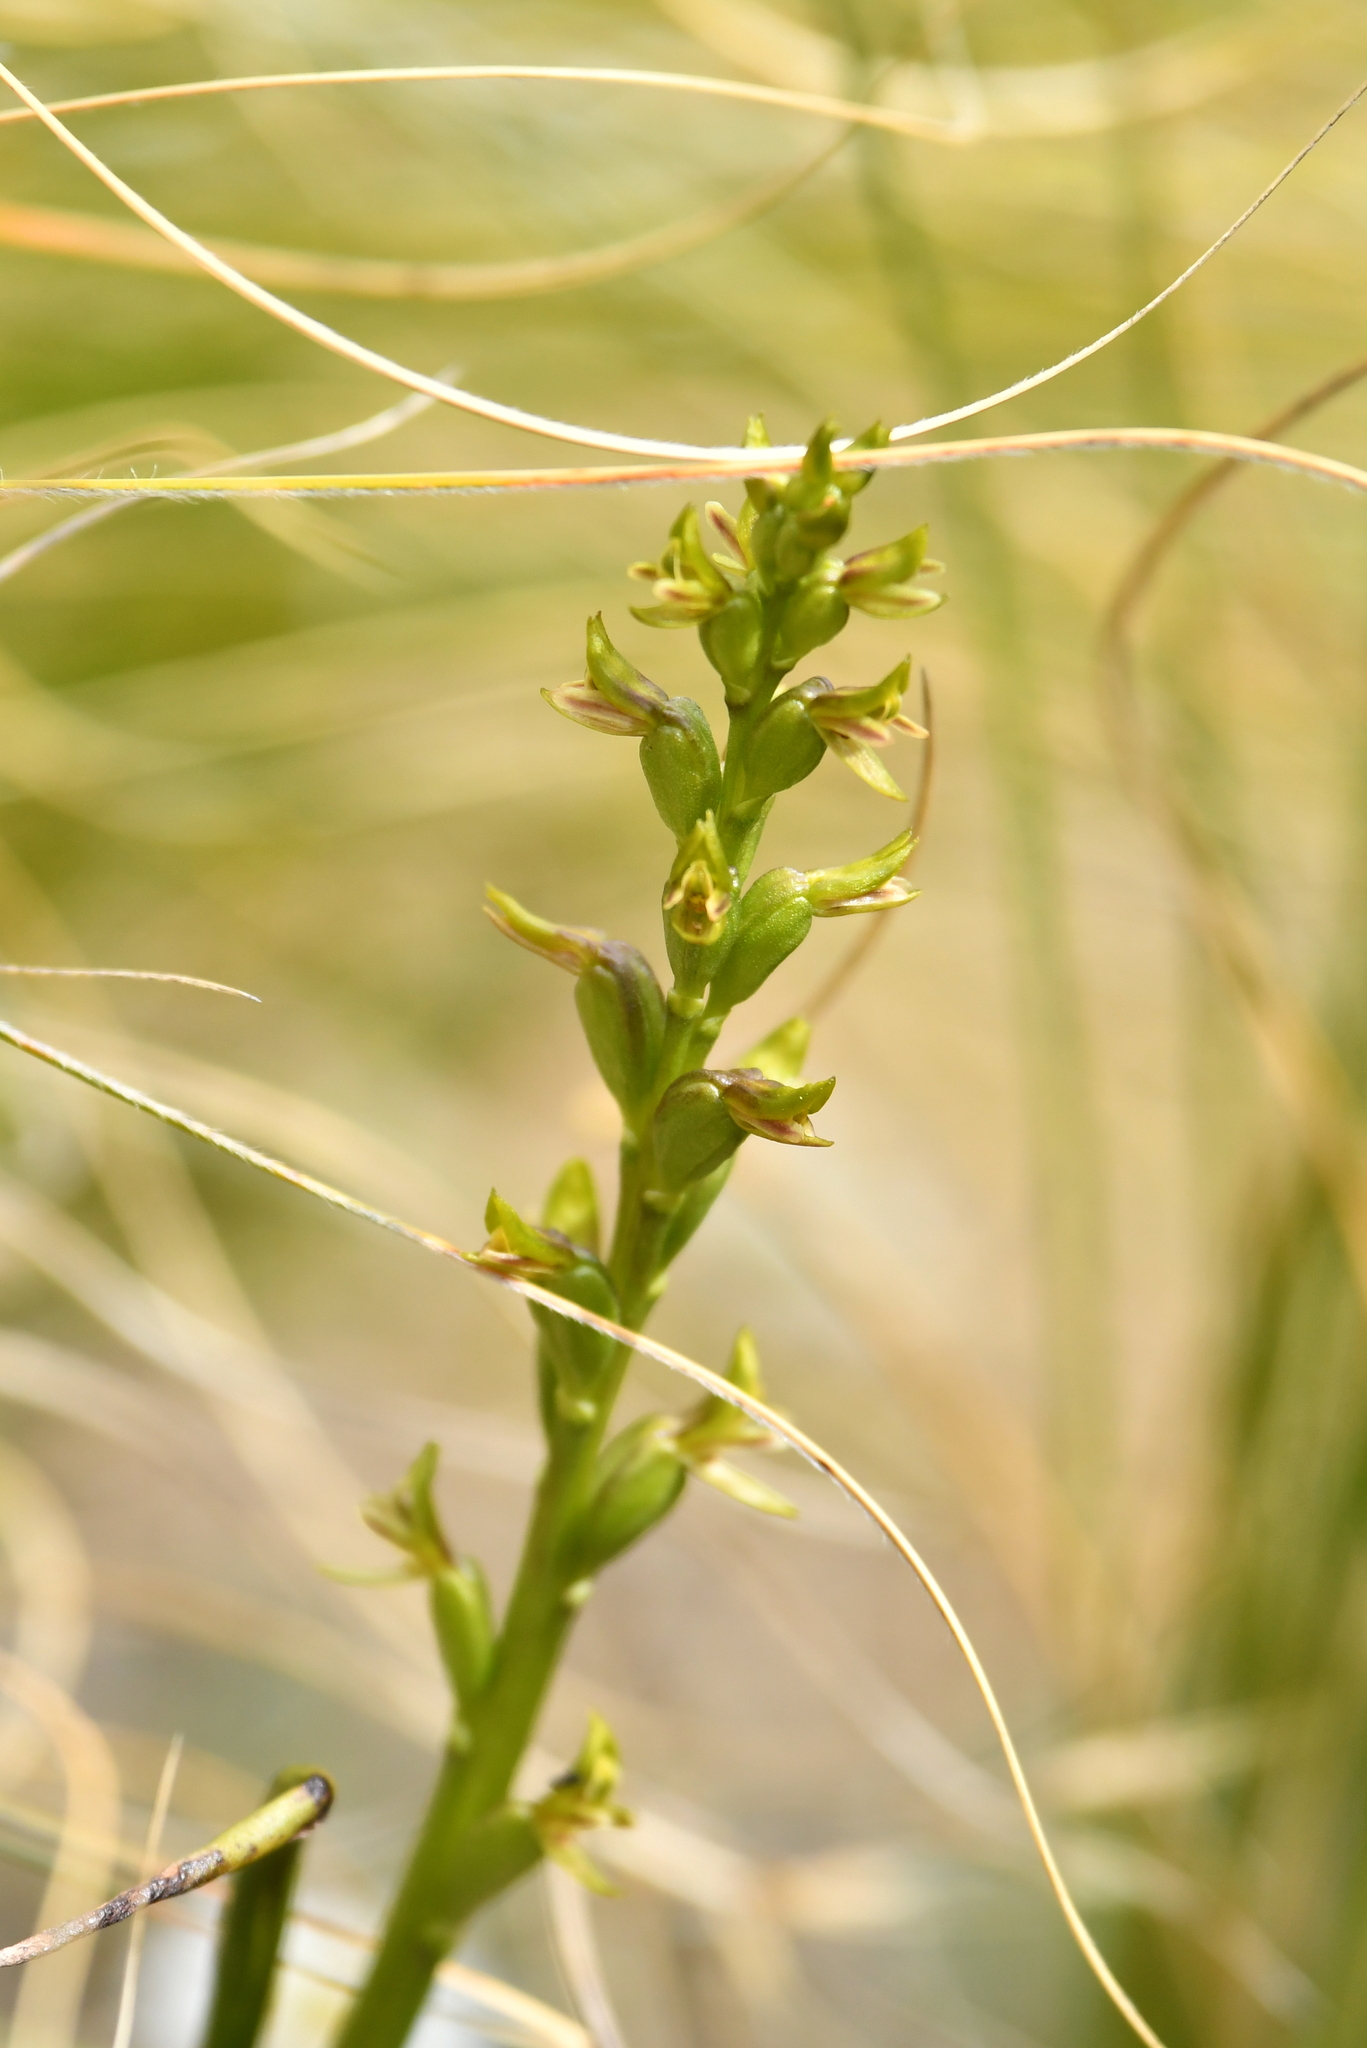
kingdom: Plantae
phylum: Tracheophyta
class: Liliopsida
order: Asparagales
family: Orchidaceae
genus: Prasophyllum
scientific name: Prasophyllum colensoi
